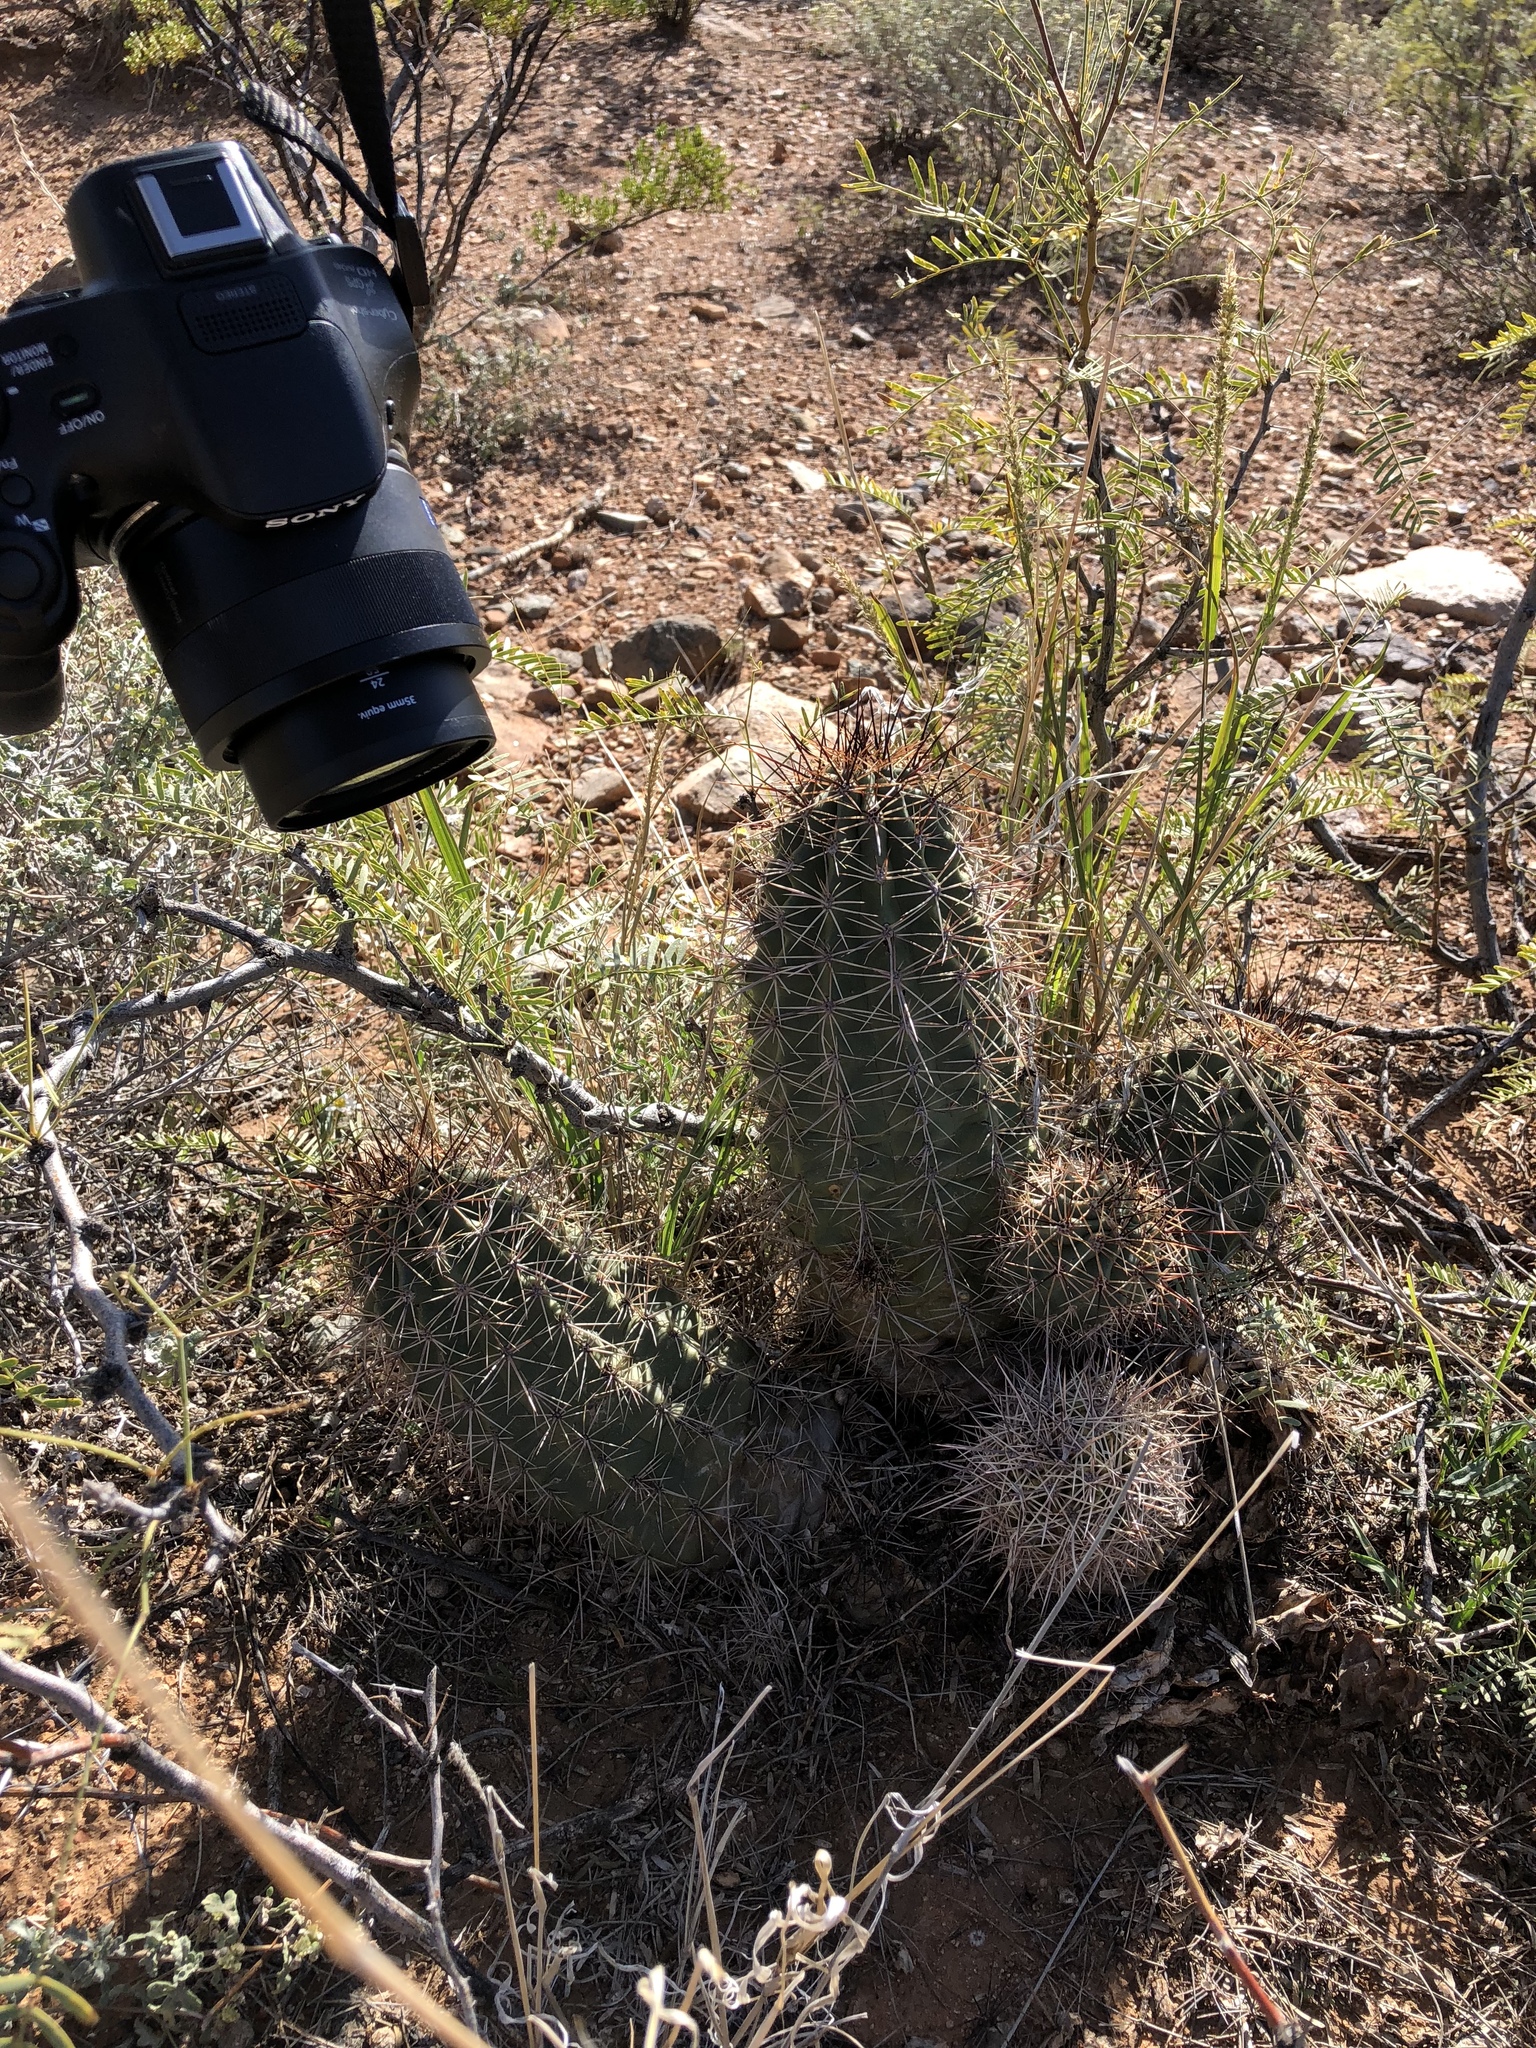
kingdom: Plantae
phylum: Tracheophyta
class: Magnoliopsida
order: Caryophyllales
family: Cactaceae
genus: Echinocereus
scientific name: Echinocereus coccineus
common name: Scarlet hedgehog cactus
